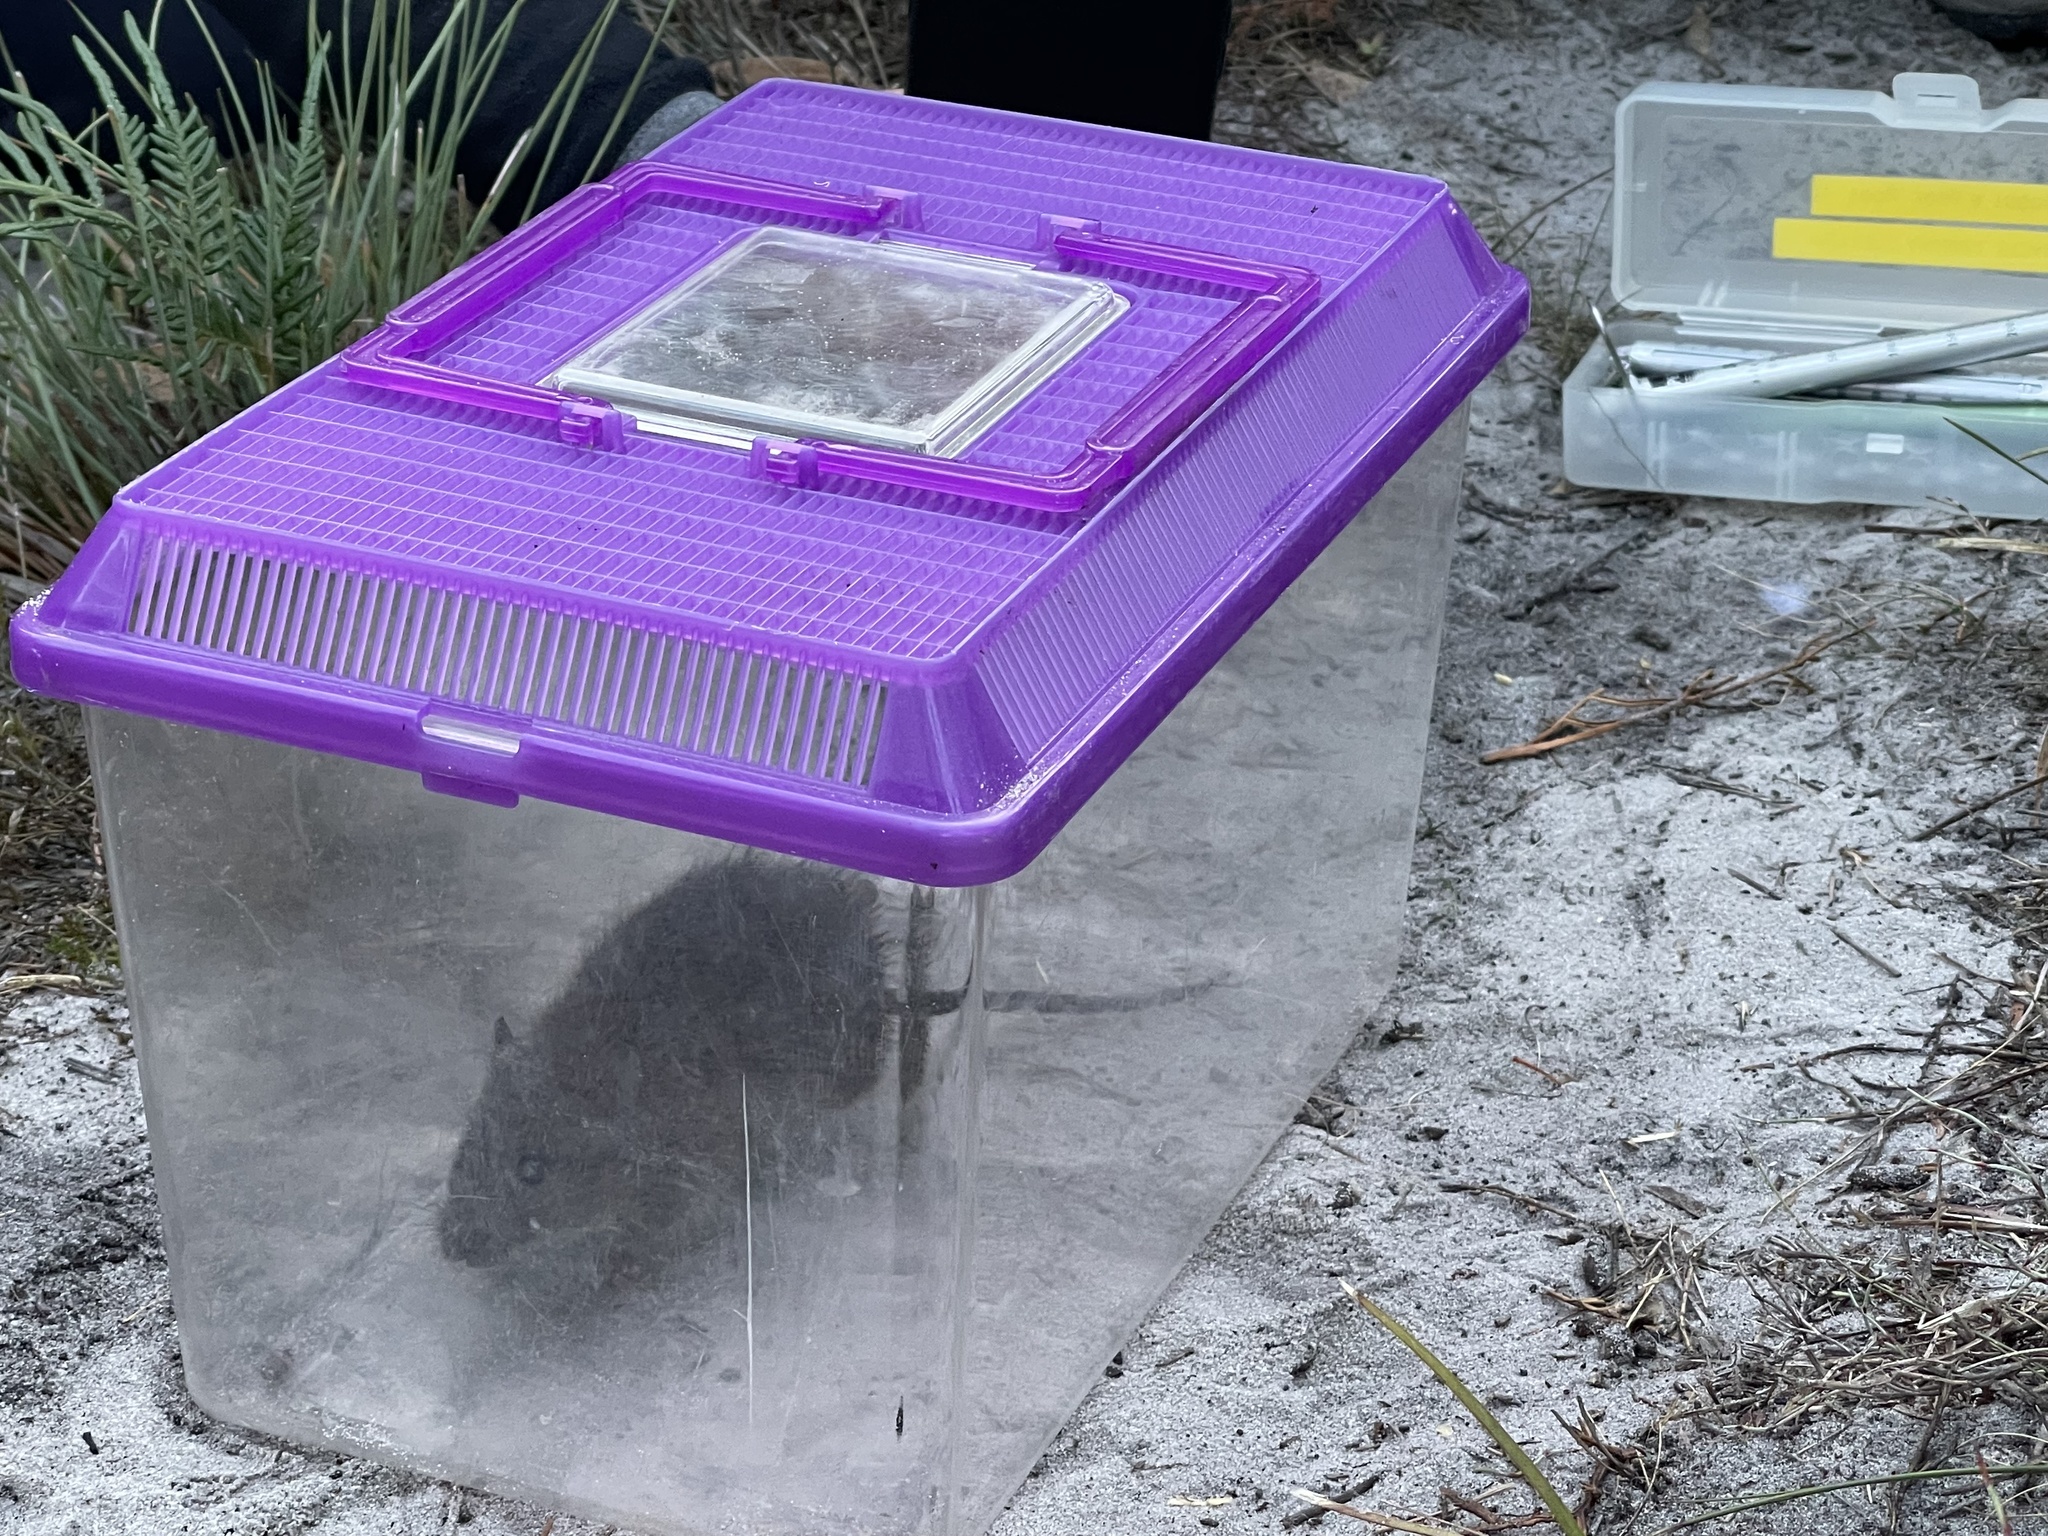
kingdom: Animalia
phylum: Chordata
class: Mammalia
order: Rodentia
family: Muridae
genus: Rattus
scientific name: Rattus lutreolus
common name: Australian swamp rat
